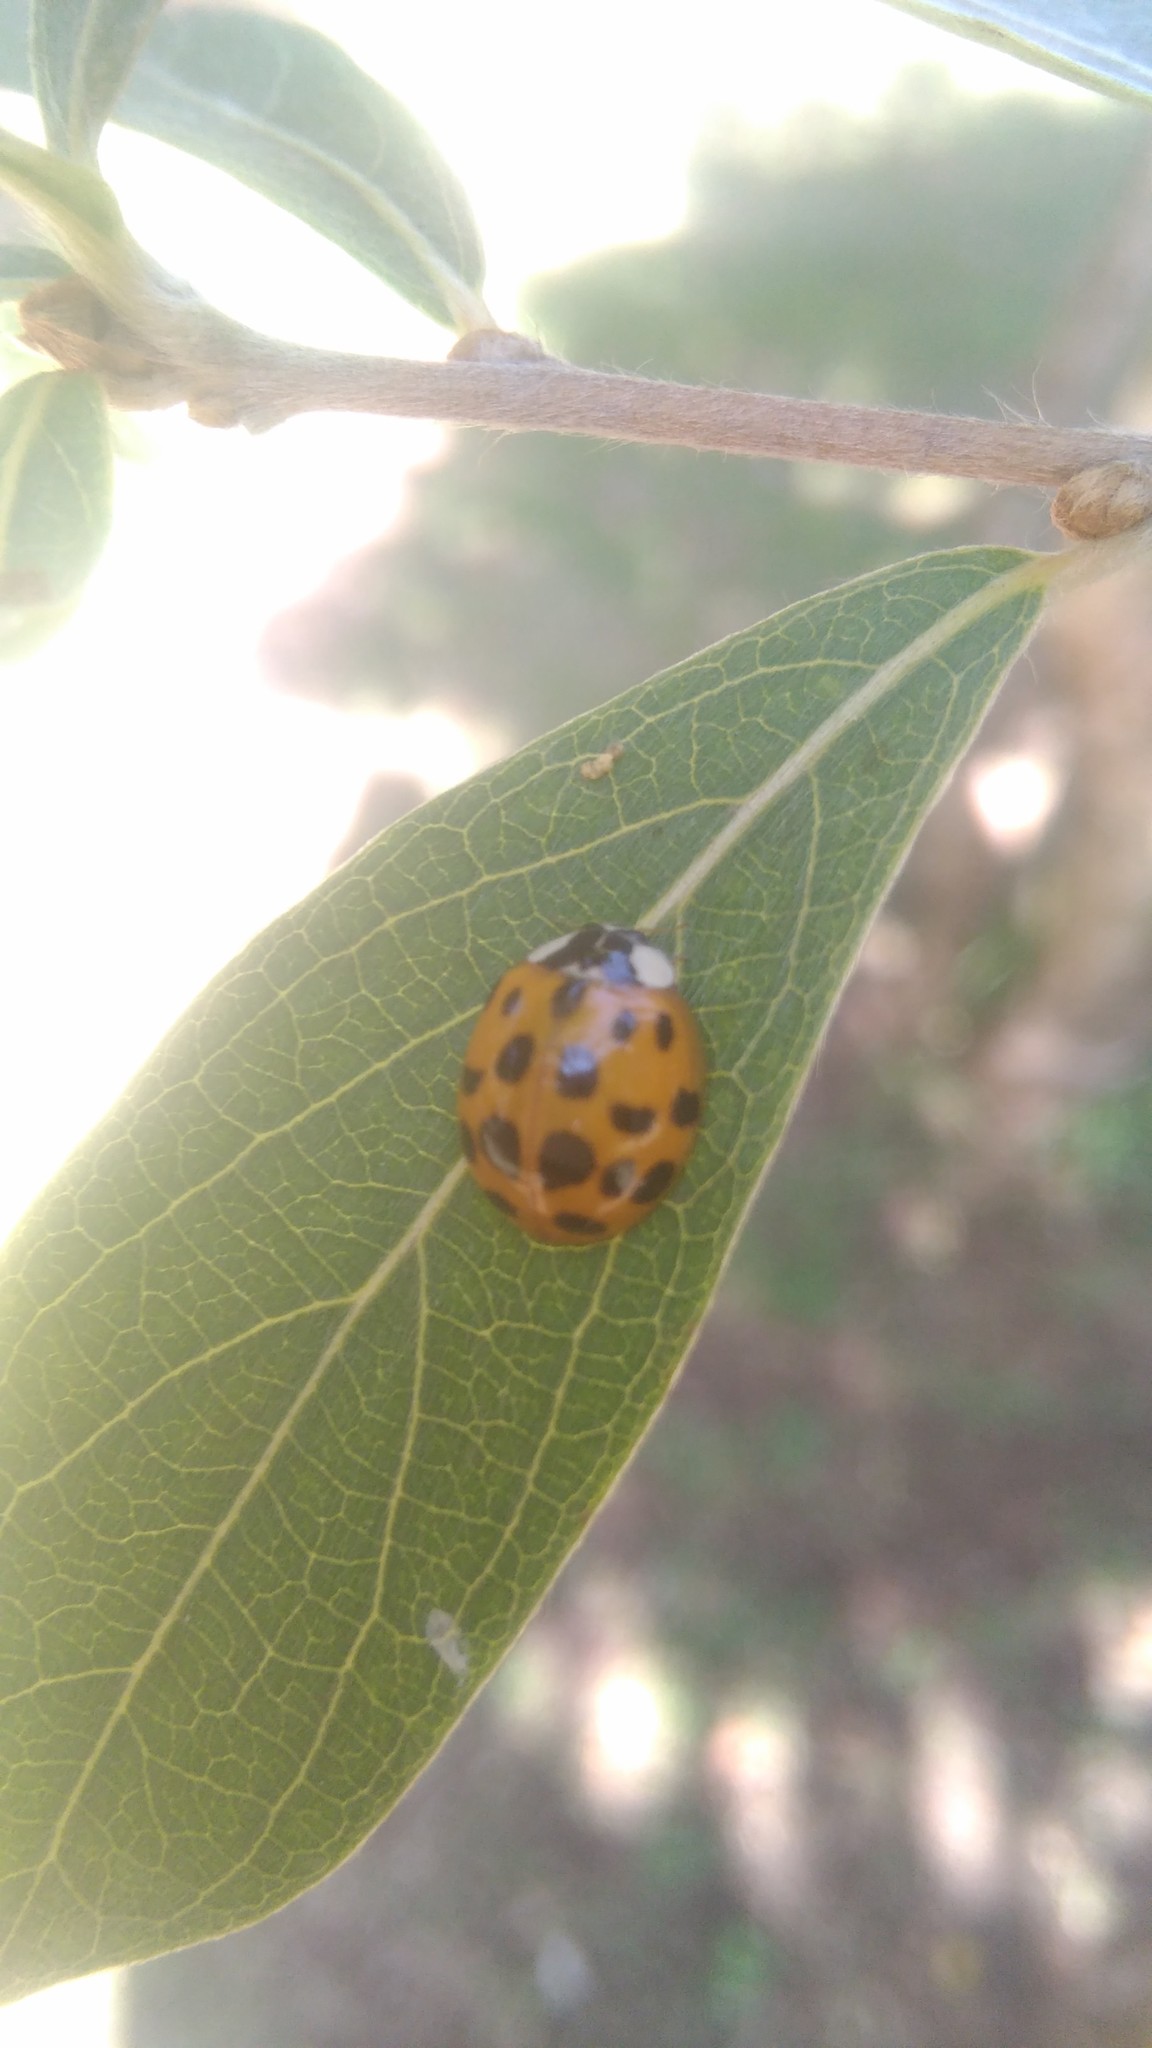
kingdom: Animalia
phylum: Arthropoda
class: Insecta
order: Coleoptera
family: Coccinellidae
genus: Harmonia
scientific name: Harmonia axyridis
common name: Harlequin ladybird
